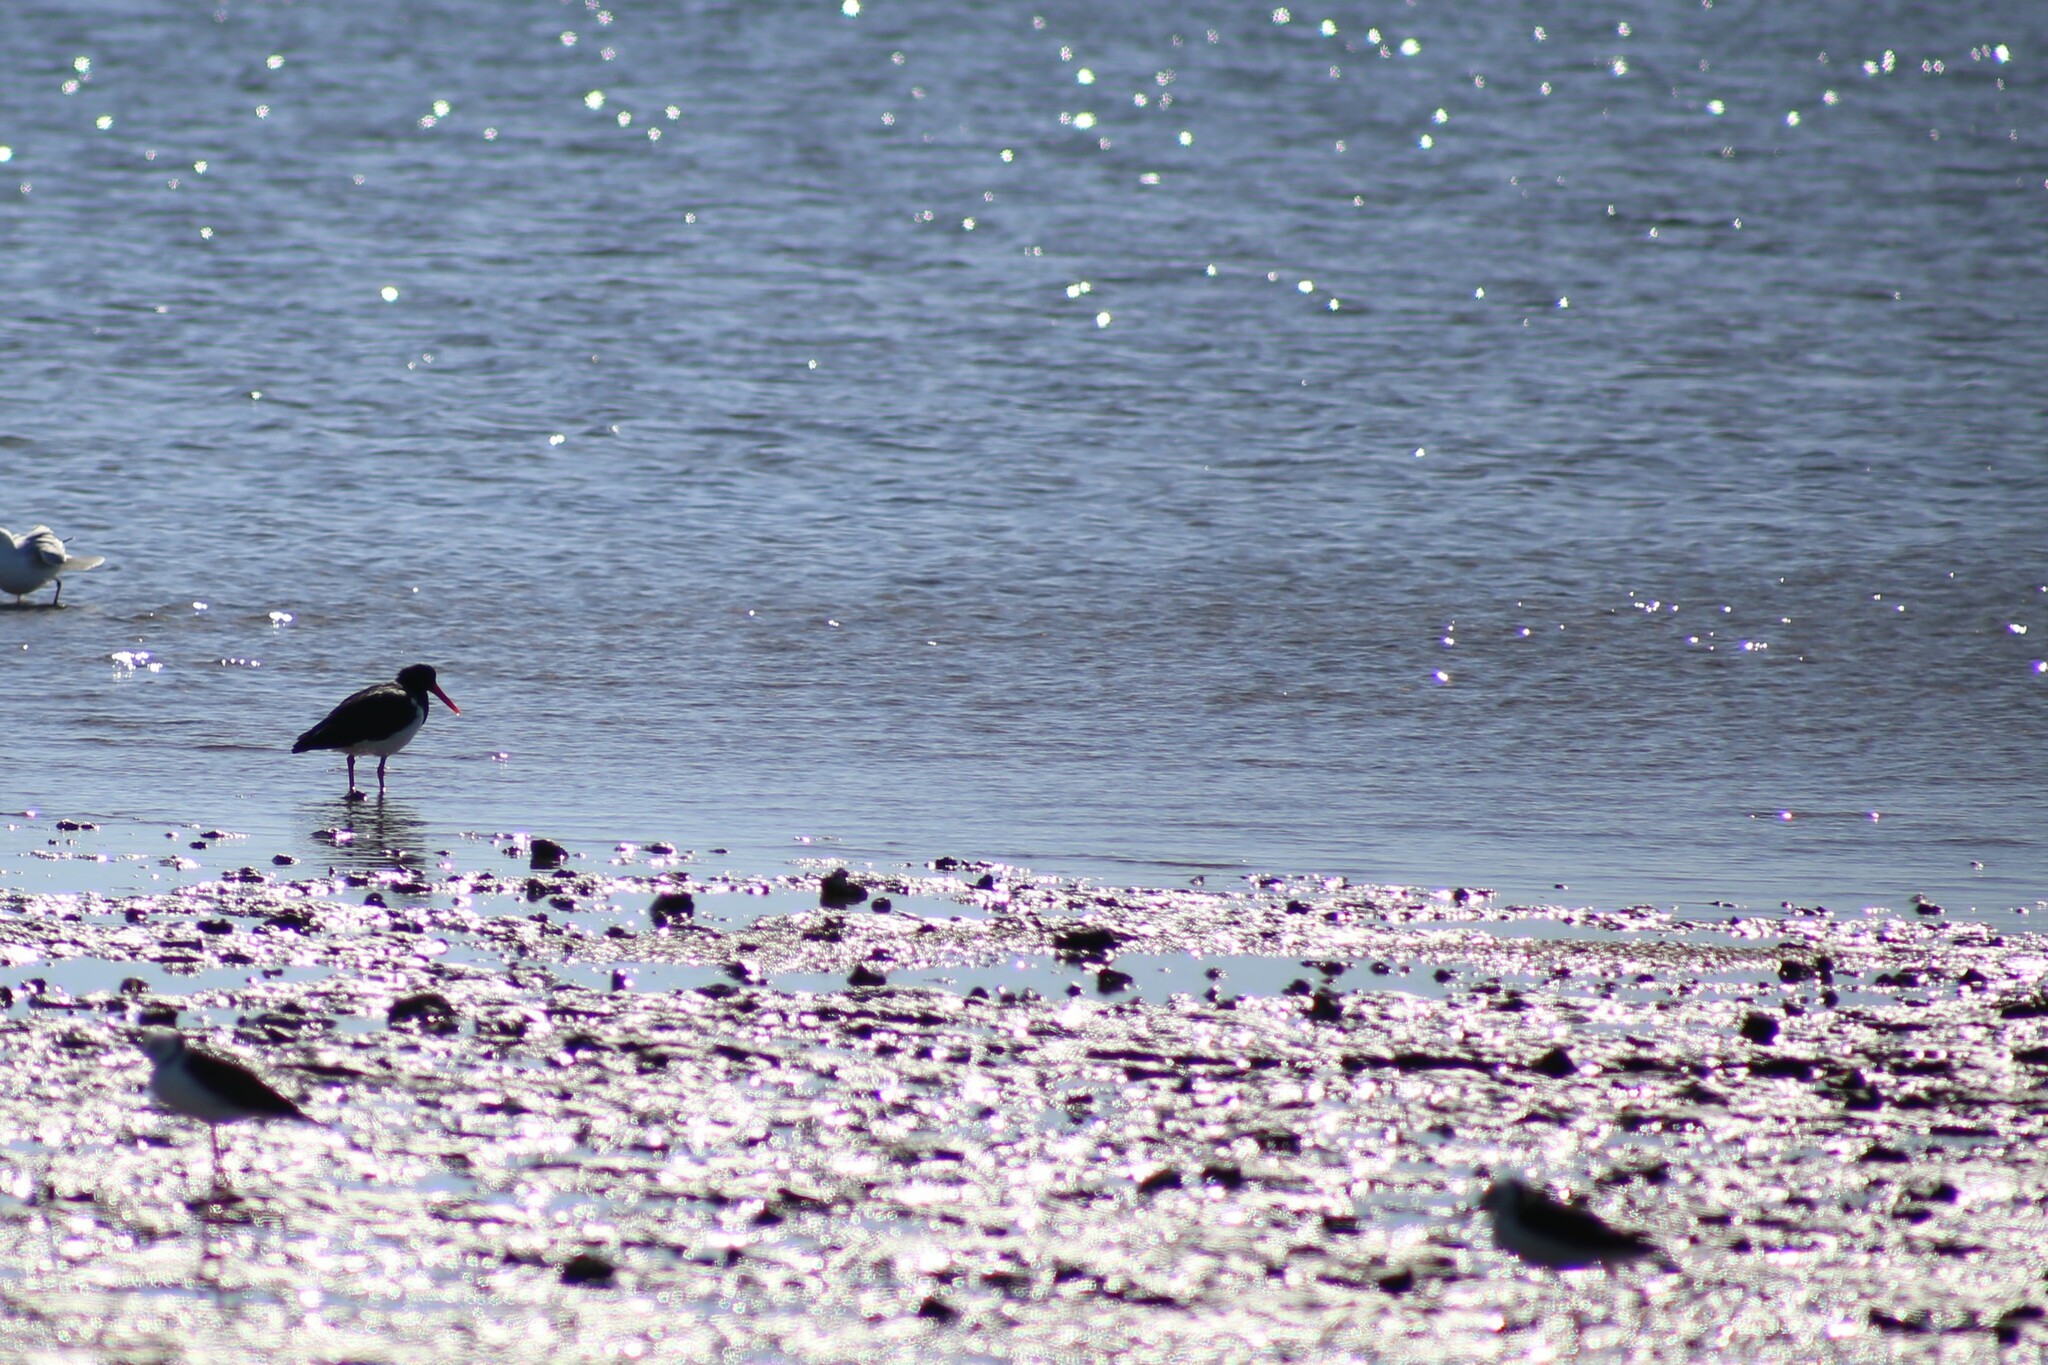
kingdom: Animalia
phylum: Chordata
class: Aves
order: Charadriiformes
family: Haematopodidae
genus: Haematopus
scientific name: Haematopus longirostris
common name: Pied oystercatcher
